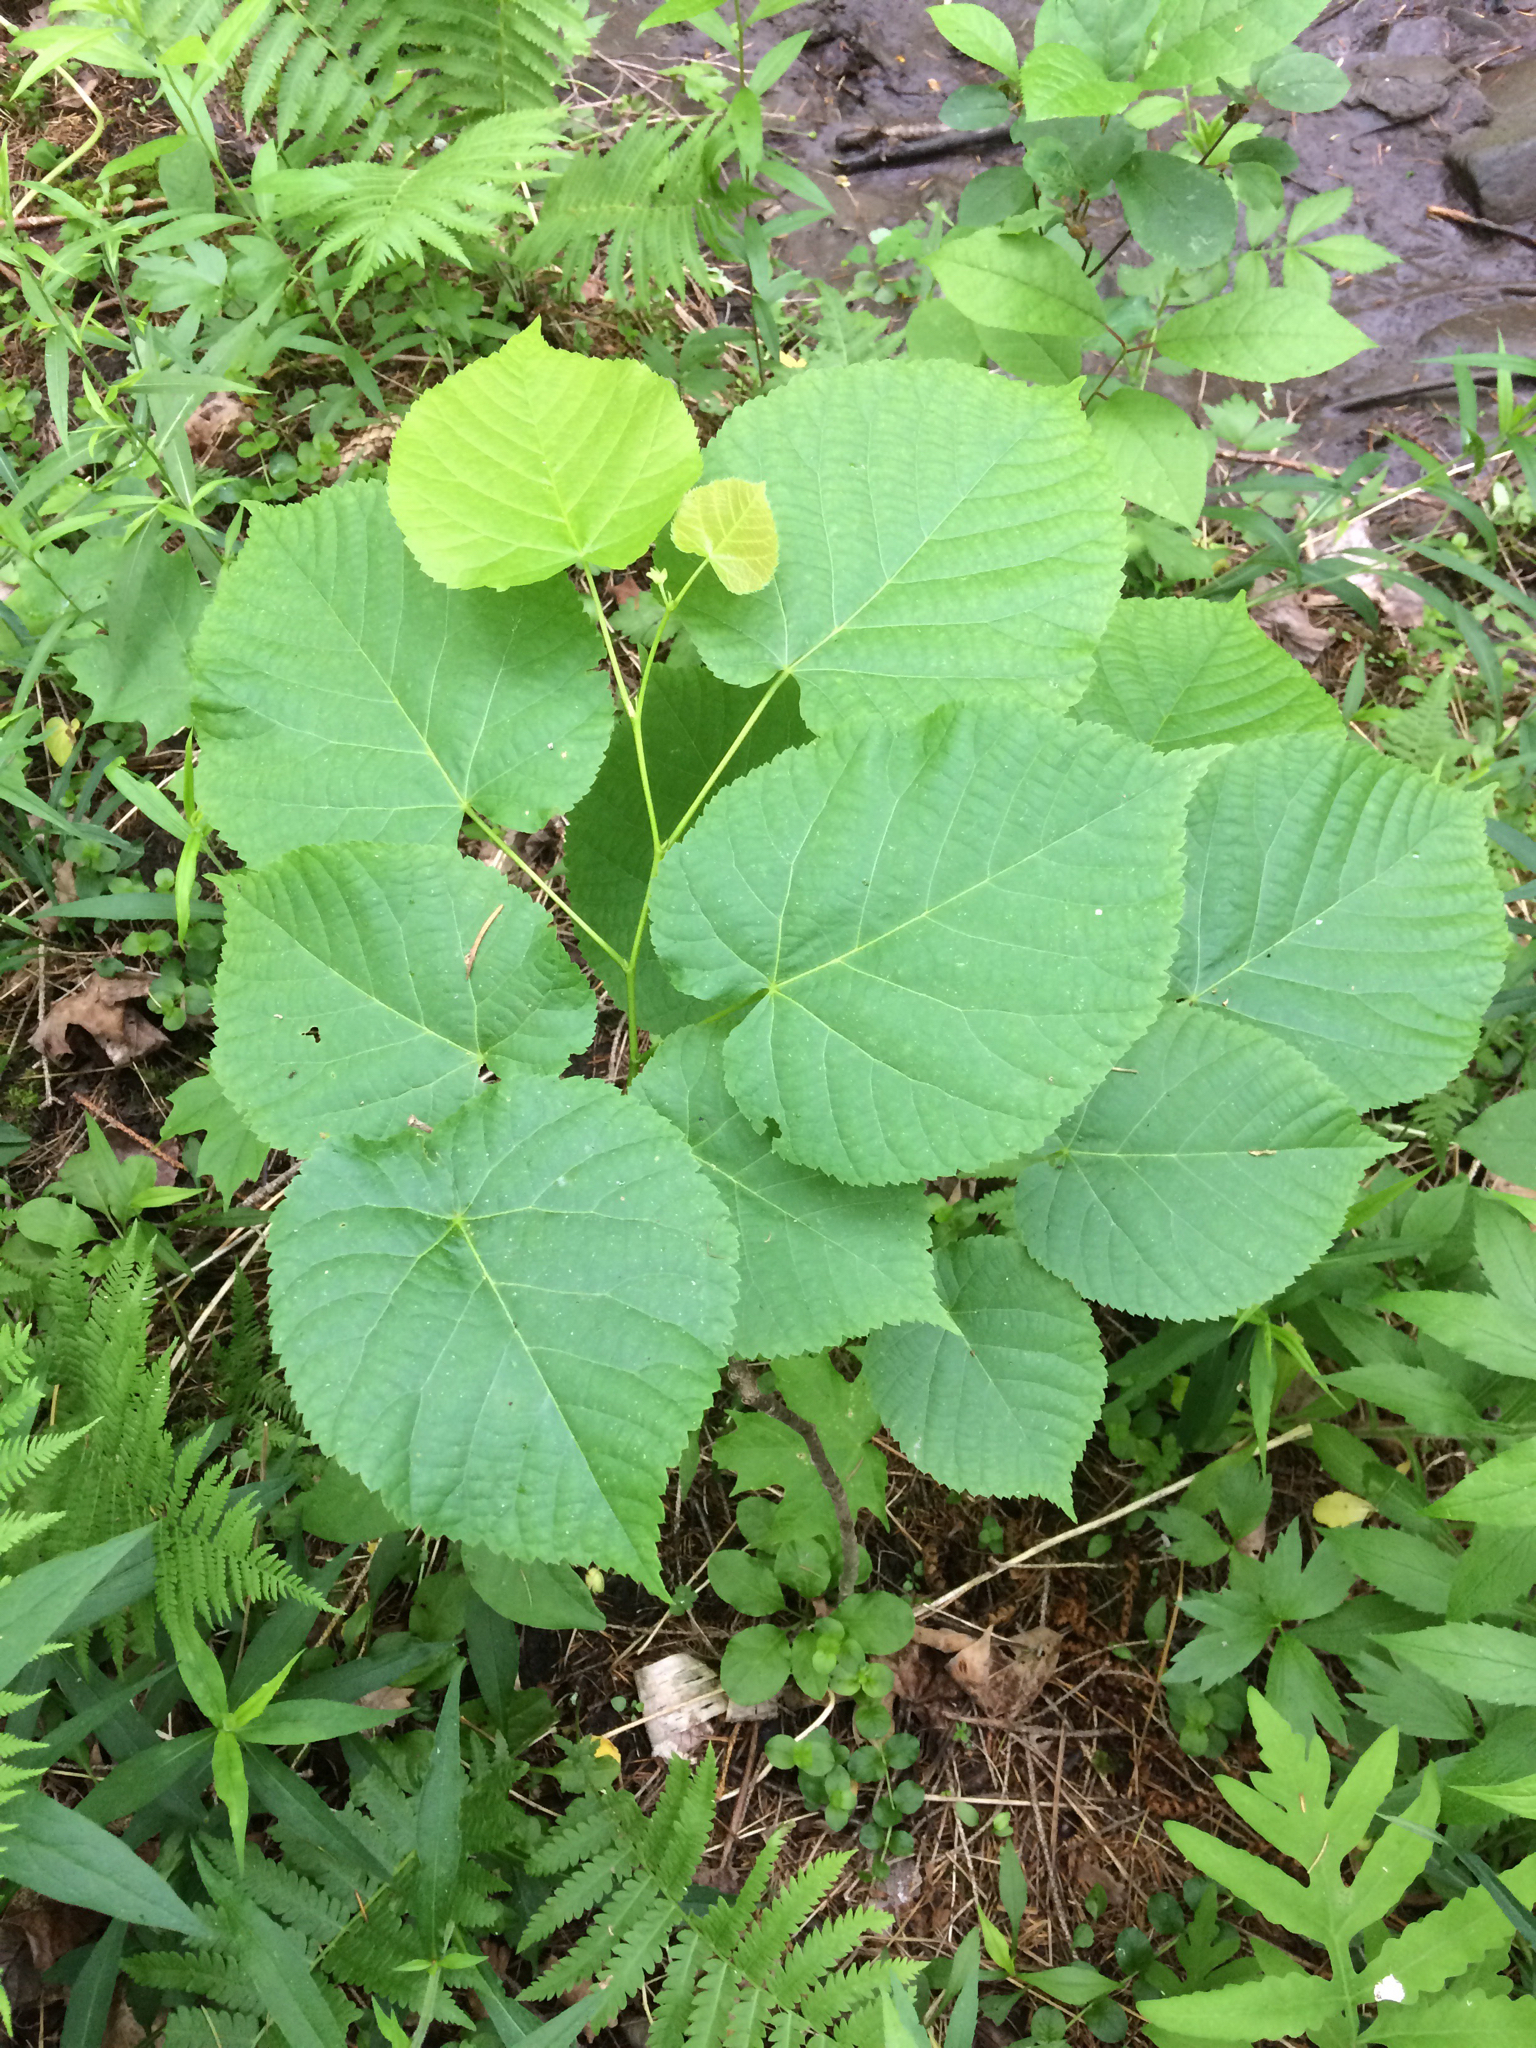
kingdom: Plantae
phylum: Tracheophyta
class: Magnoliopsida
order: Malvales
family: Malvaceae
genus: Tilia
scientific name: Tilia americana
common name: Basswood
